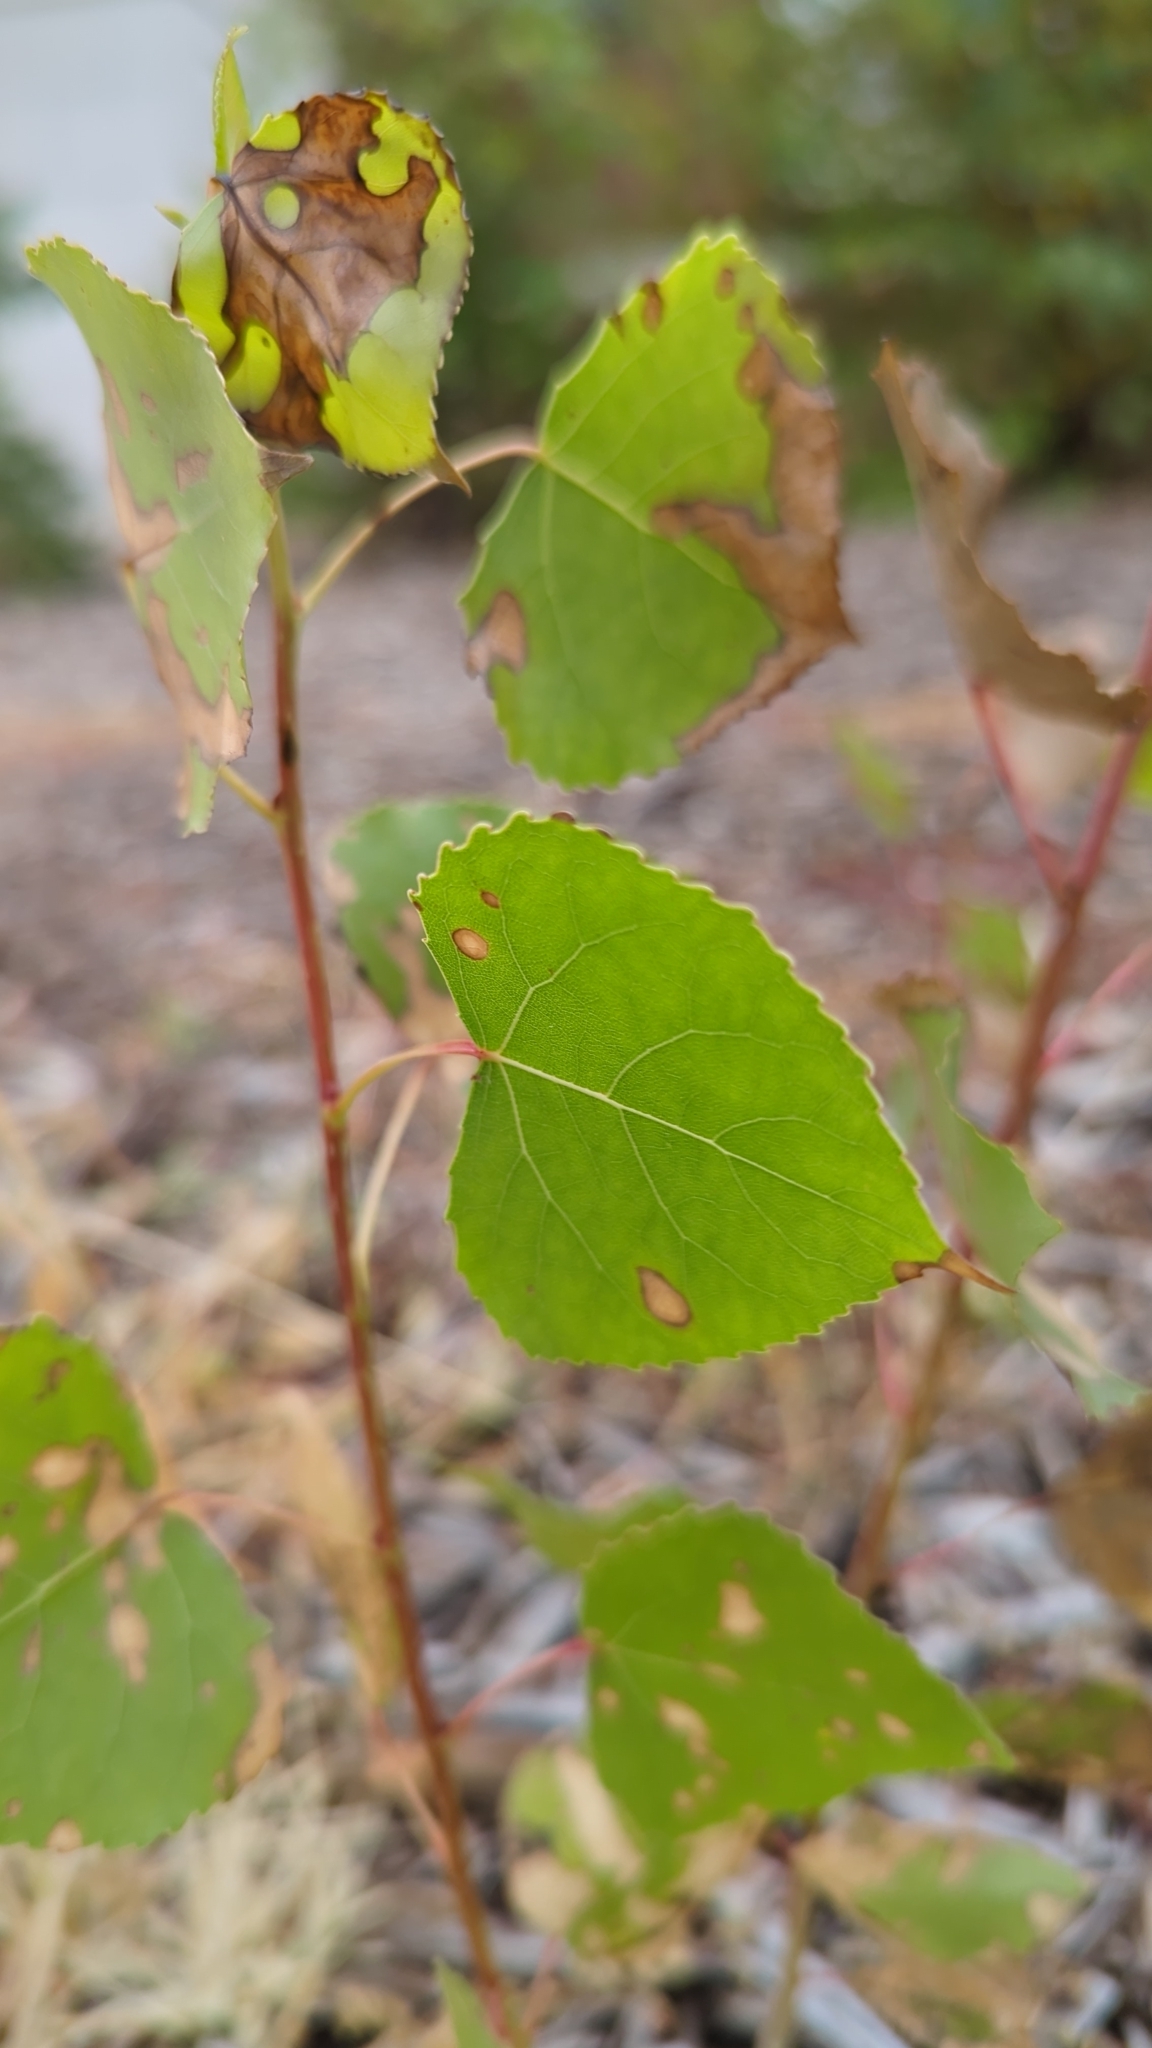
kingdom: Plantae
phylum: Tracheophyta
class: Magnoliopsida
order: Malpighiales
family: Salicaceae
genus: Populus
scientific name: Populus deltoides
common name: Eastern cottonwood
